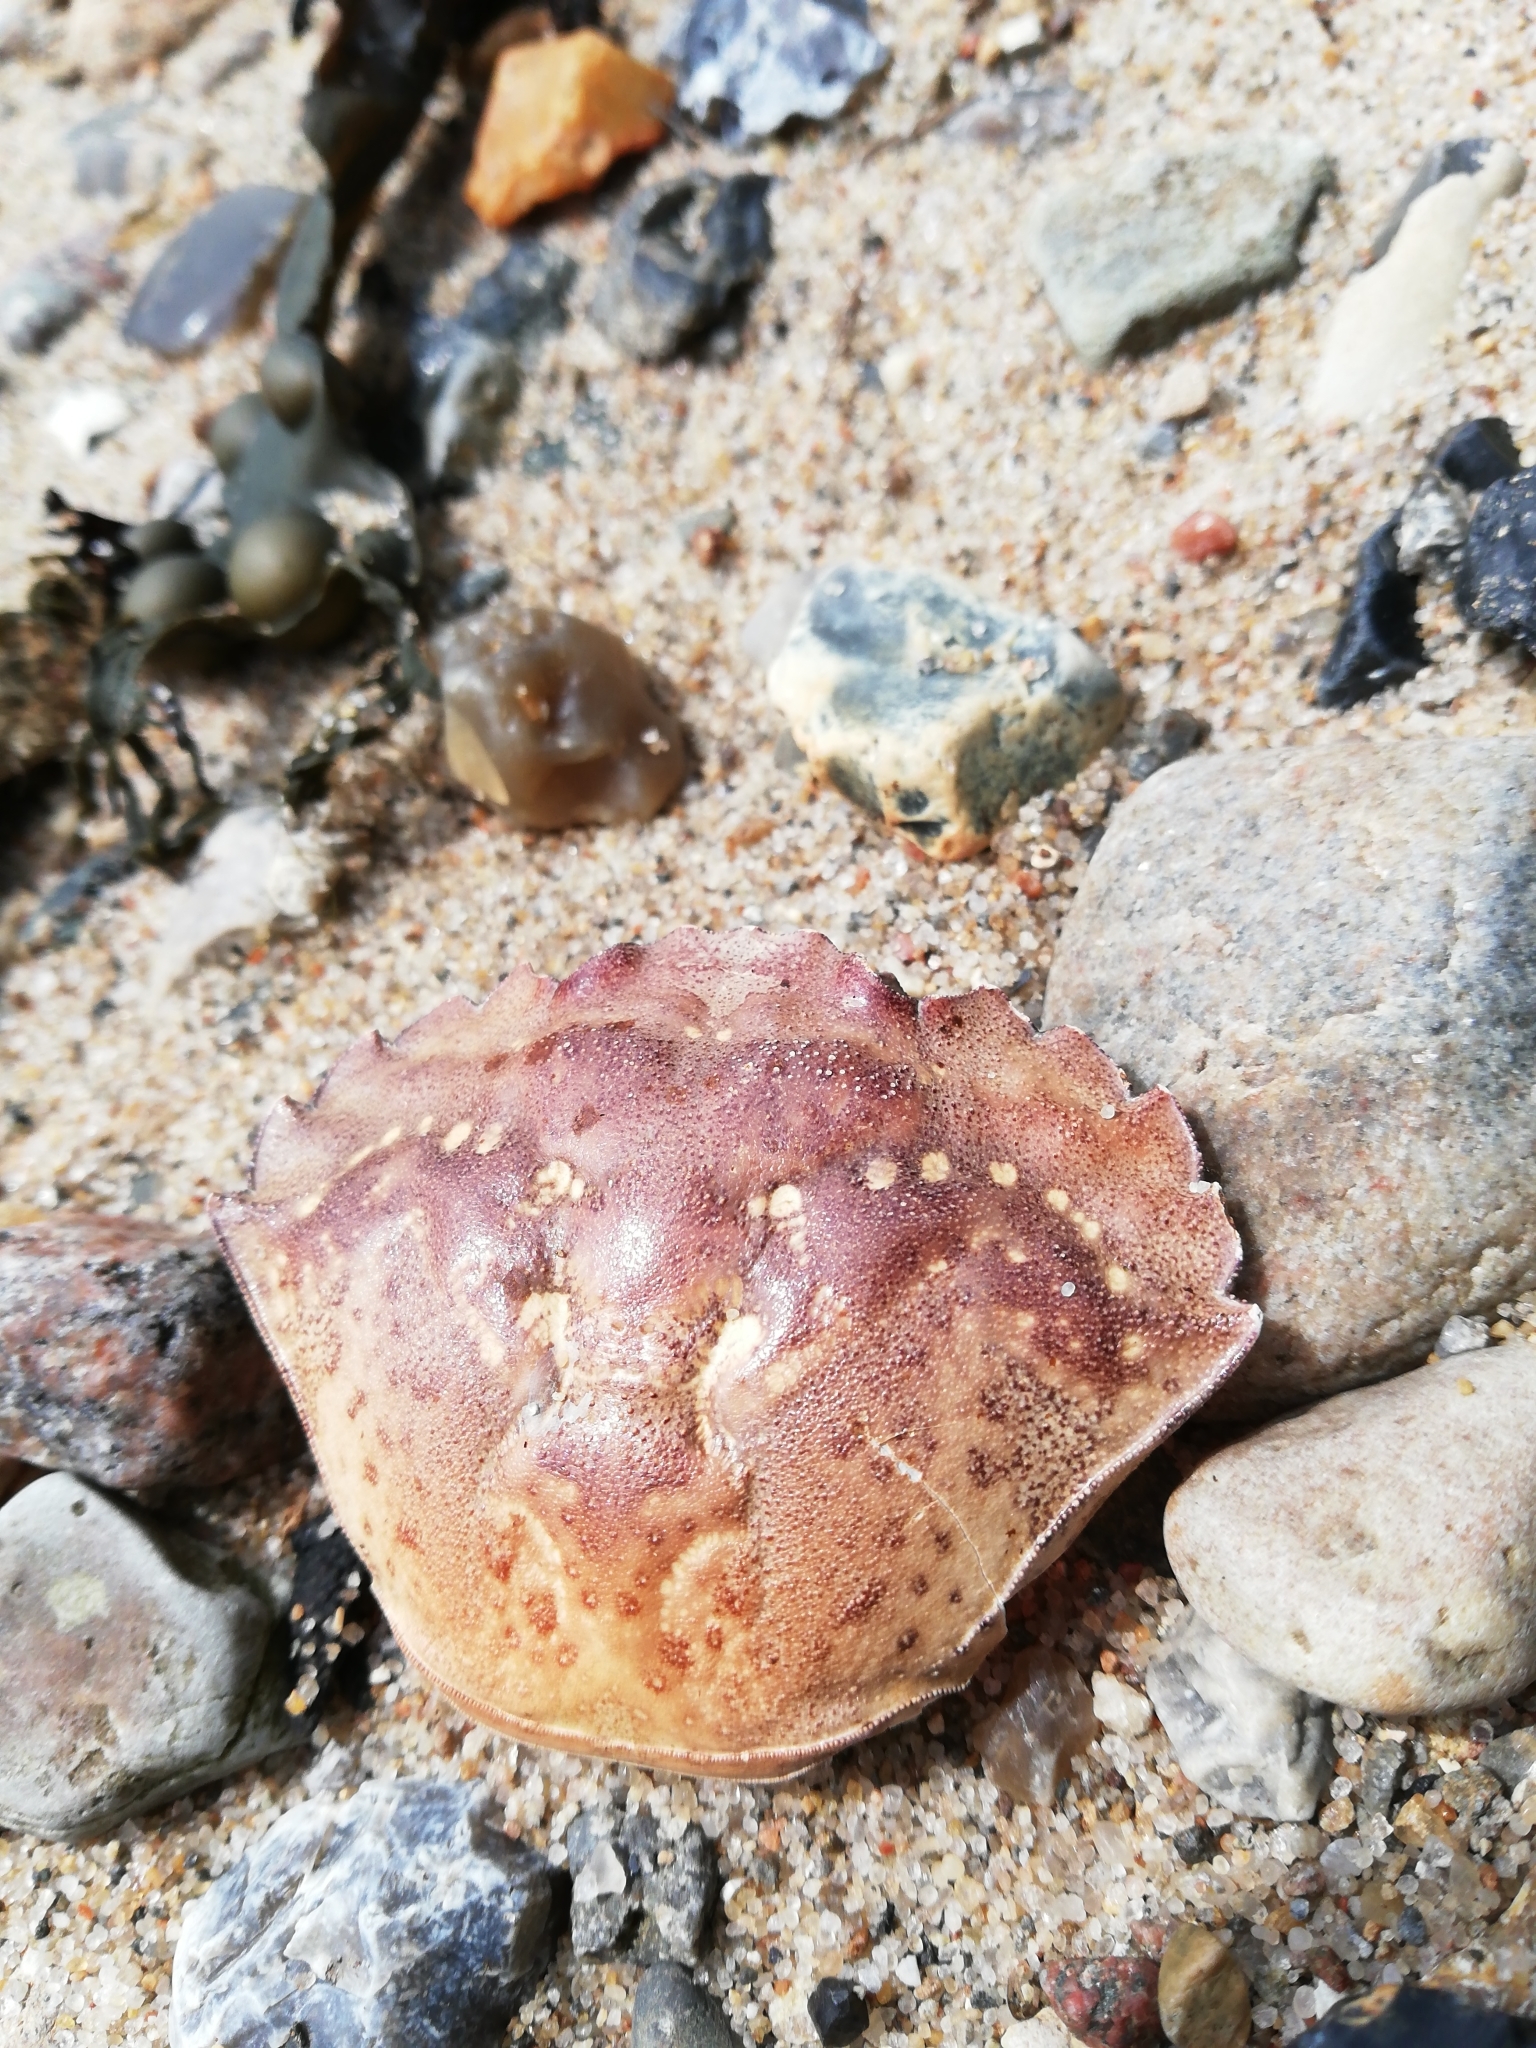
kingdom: Animalia
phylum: Arthropoda
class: Malacostraca
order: Decapoda
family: Carcinidae
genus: Carcinus
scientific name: Carcinus maenas
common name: European green crab
